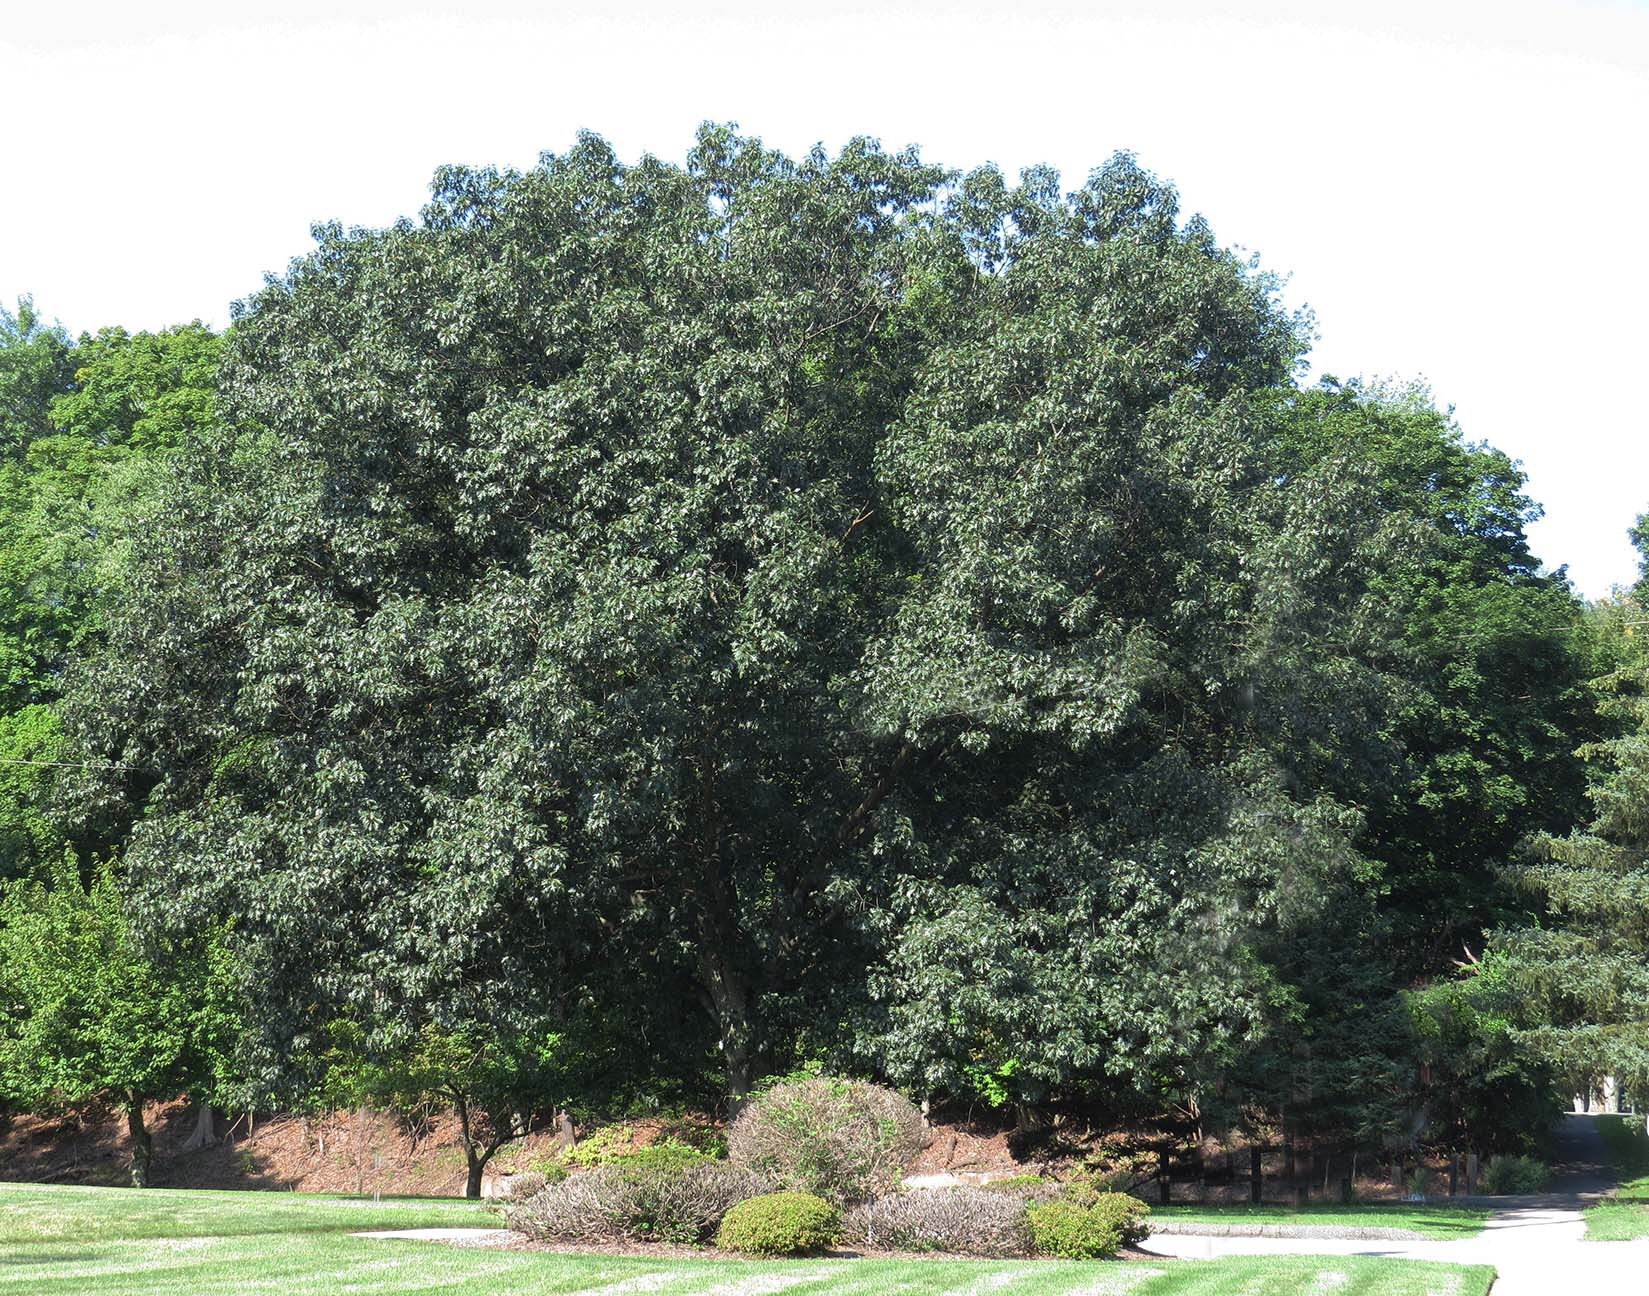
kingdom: Plantae
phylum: Tracheophyta
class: Magnoliopsida
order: Fagales
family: Fagaceae
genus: Quercus
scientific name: Quercus rubra
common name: Red oak
